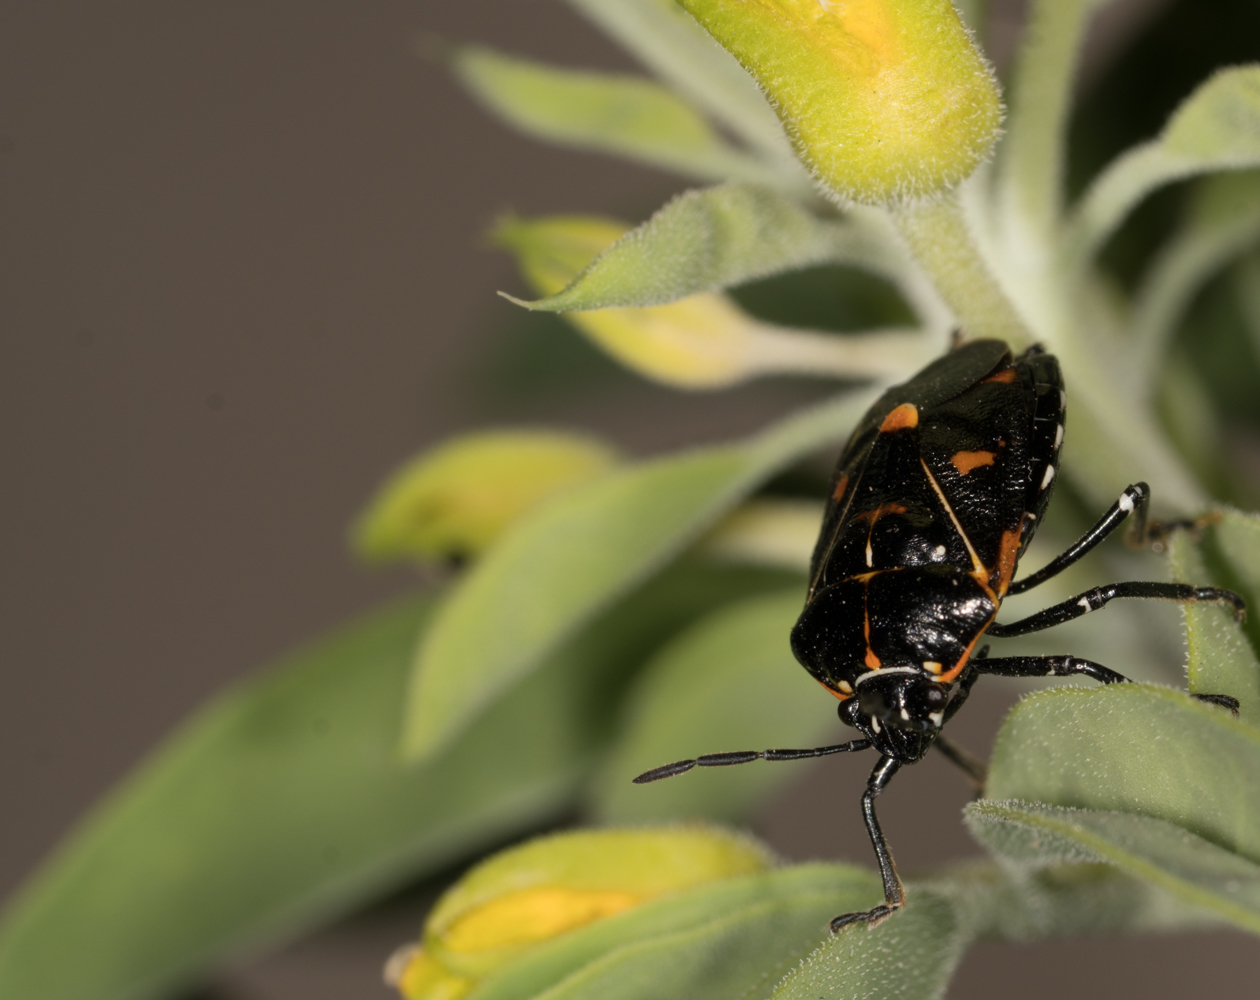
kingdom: Animalia
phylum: Arthropoda
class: Insecta
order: Hemiptera
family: Pentatomidae
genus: Murgantia
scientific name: Murgantia histrionica
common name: Harlequin bug
